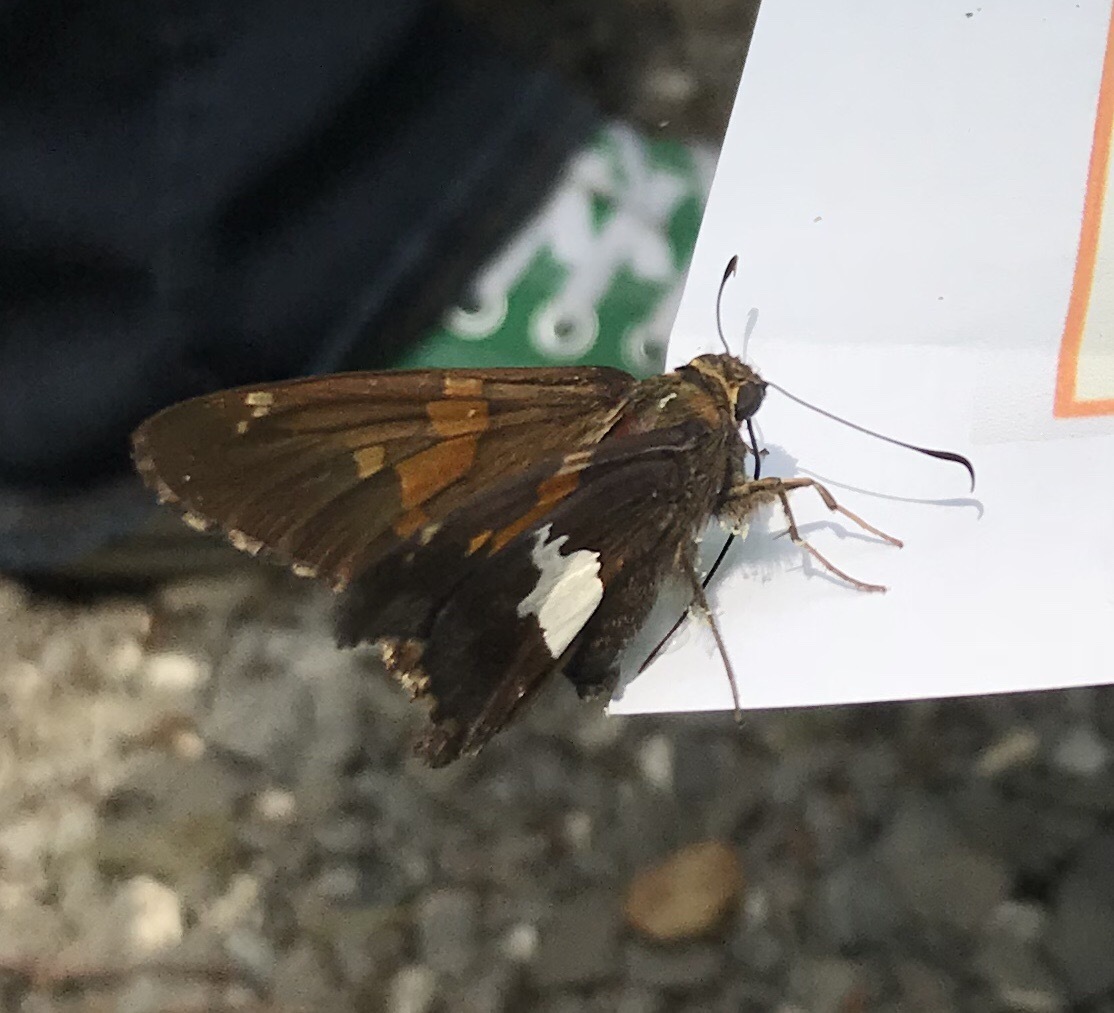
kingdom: Animalia
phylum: Arthropoda
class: Insecta
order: Lepidoptera
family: Hesperiidae
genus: Epargyreus
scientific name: Epargyreus clarus
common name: Silver-spotted skipper
